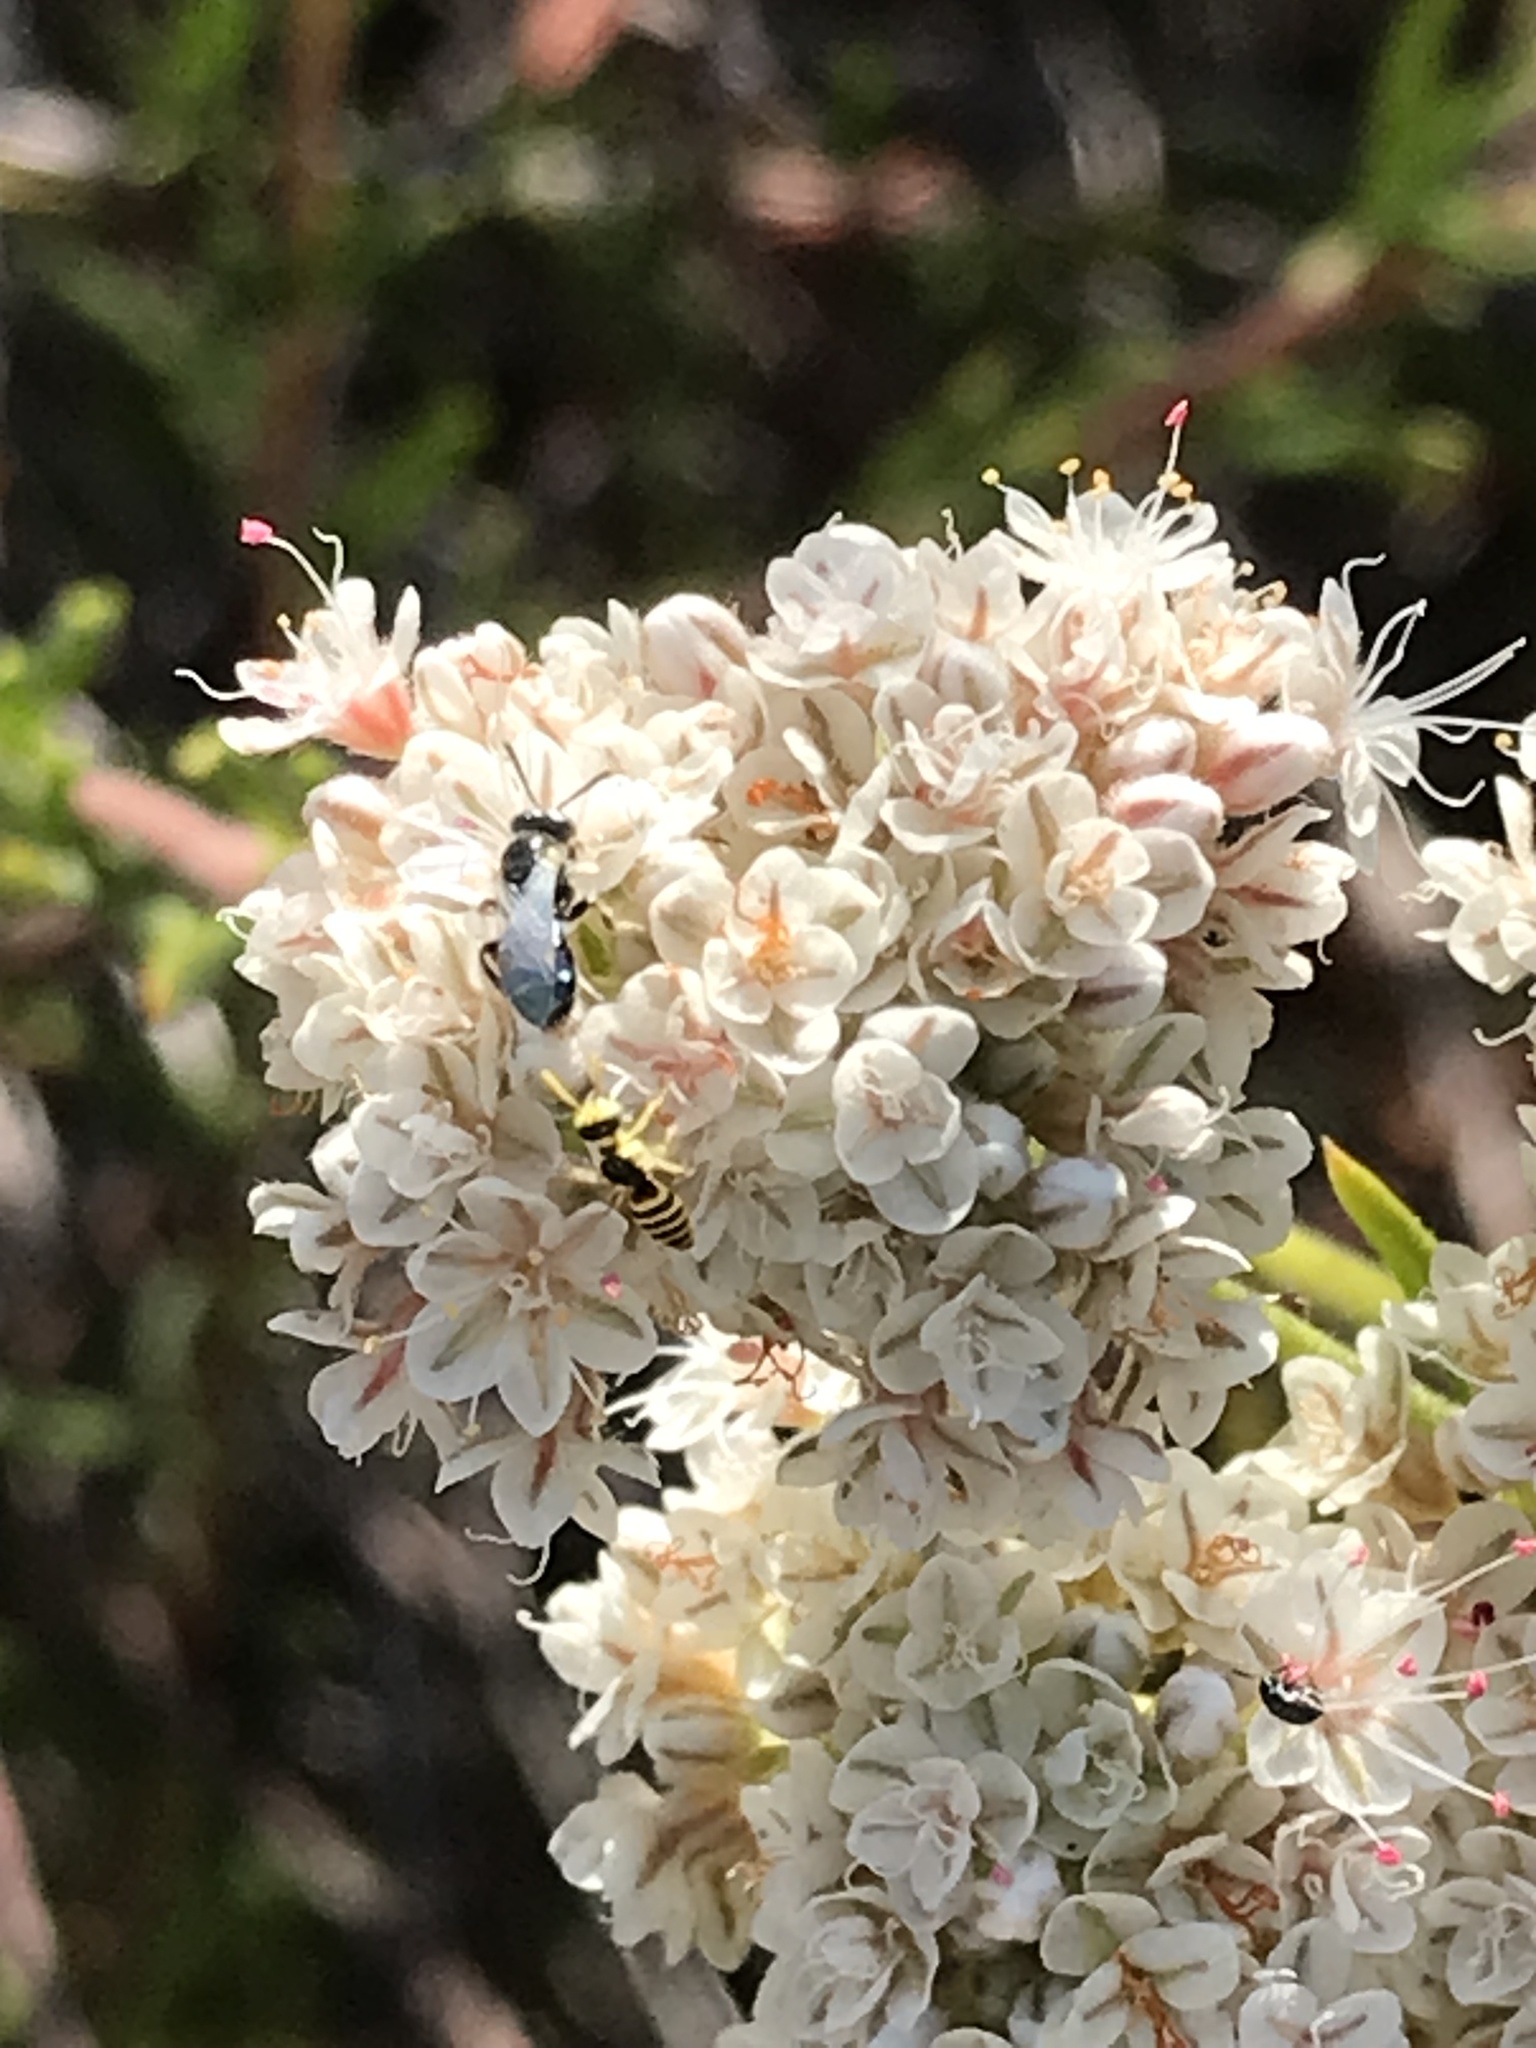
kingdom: Animalia
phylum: Arthropoda
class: Insecta
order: Hymenoptera
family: Andrenidae
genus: Perdita
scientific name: Perdita rhois
